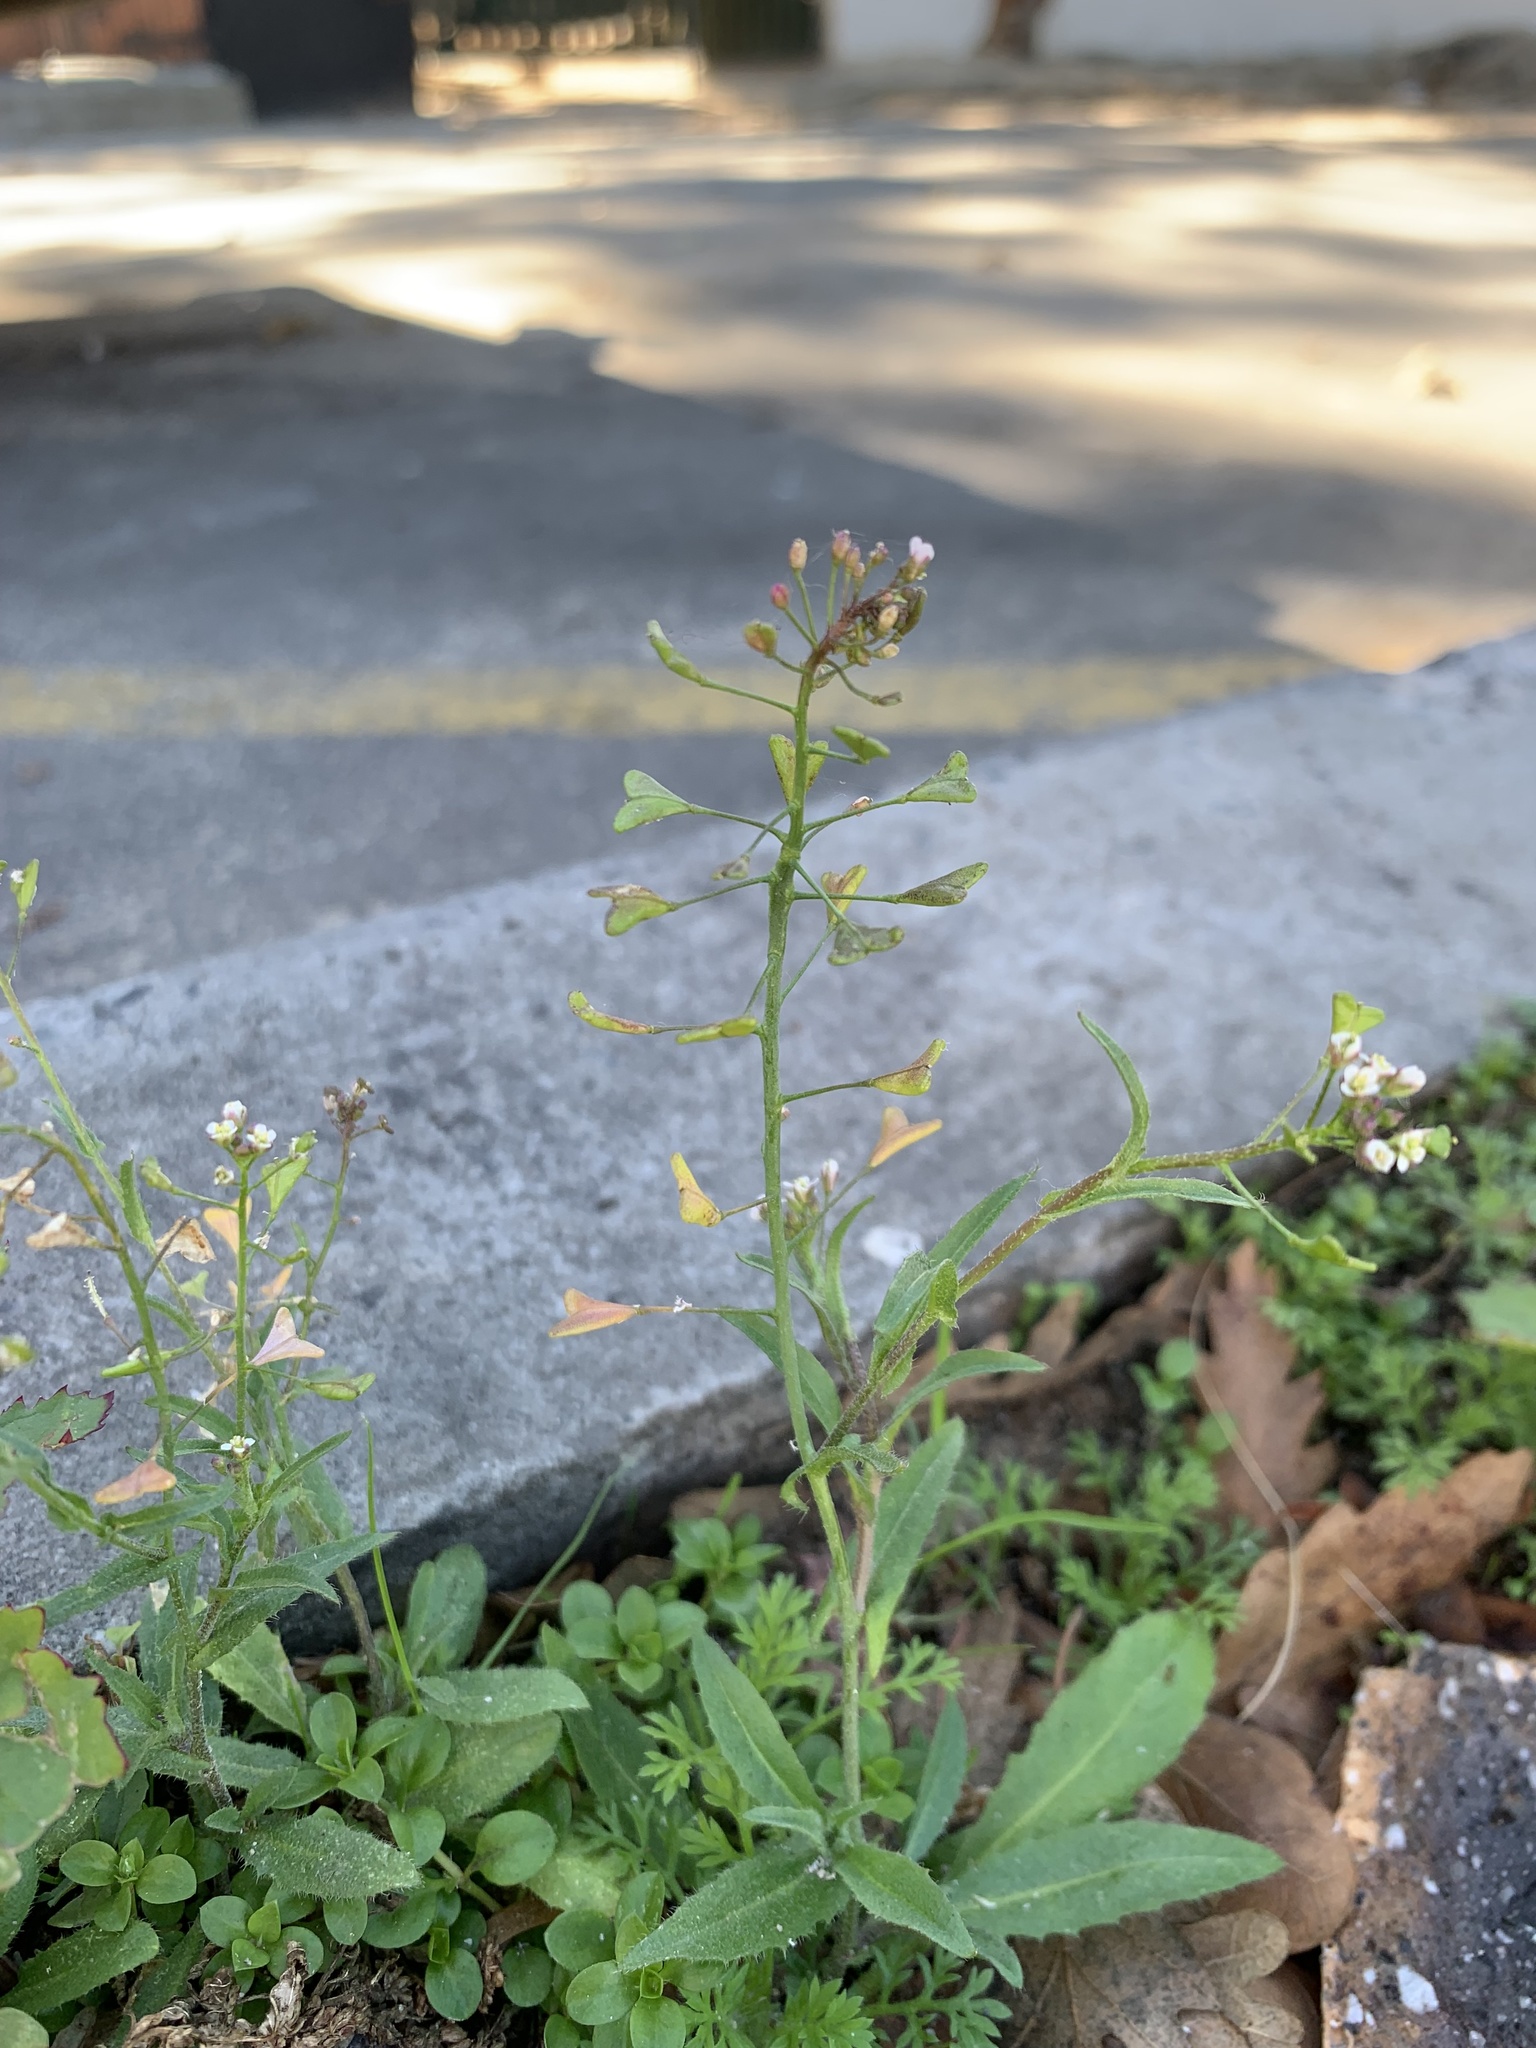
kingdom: Plantae
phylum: Tracheophyta
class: Magnoliopsida
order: Brassicales
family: Brassicaceae
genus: Capsella
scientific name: Capsella bursa-pastoris
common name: Shepherd's purse
